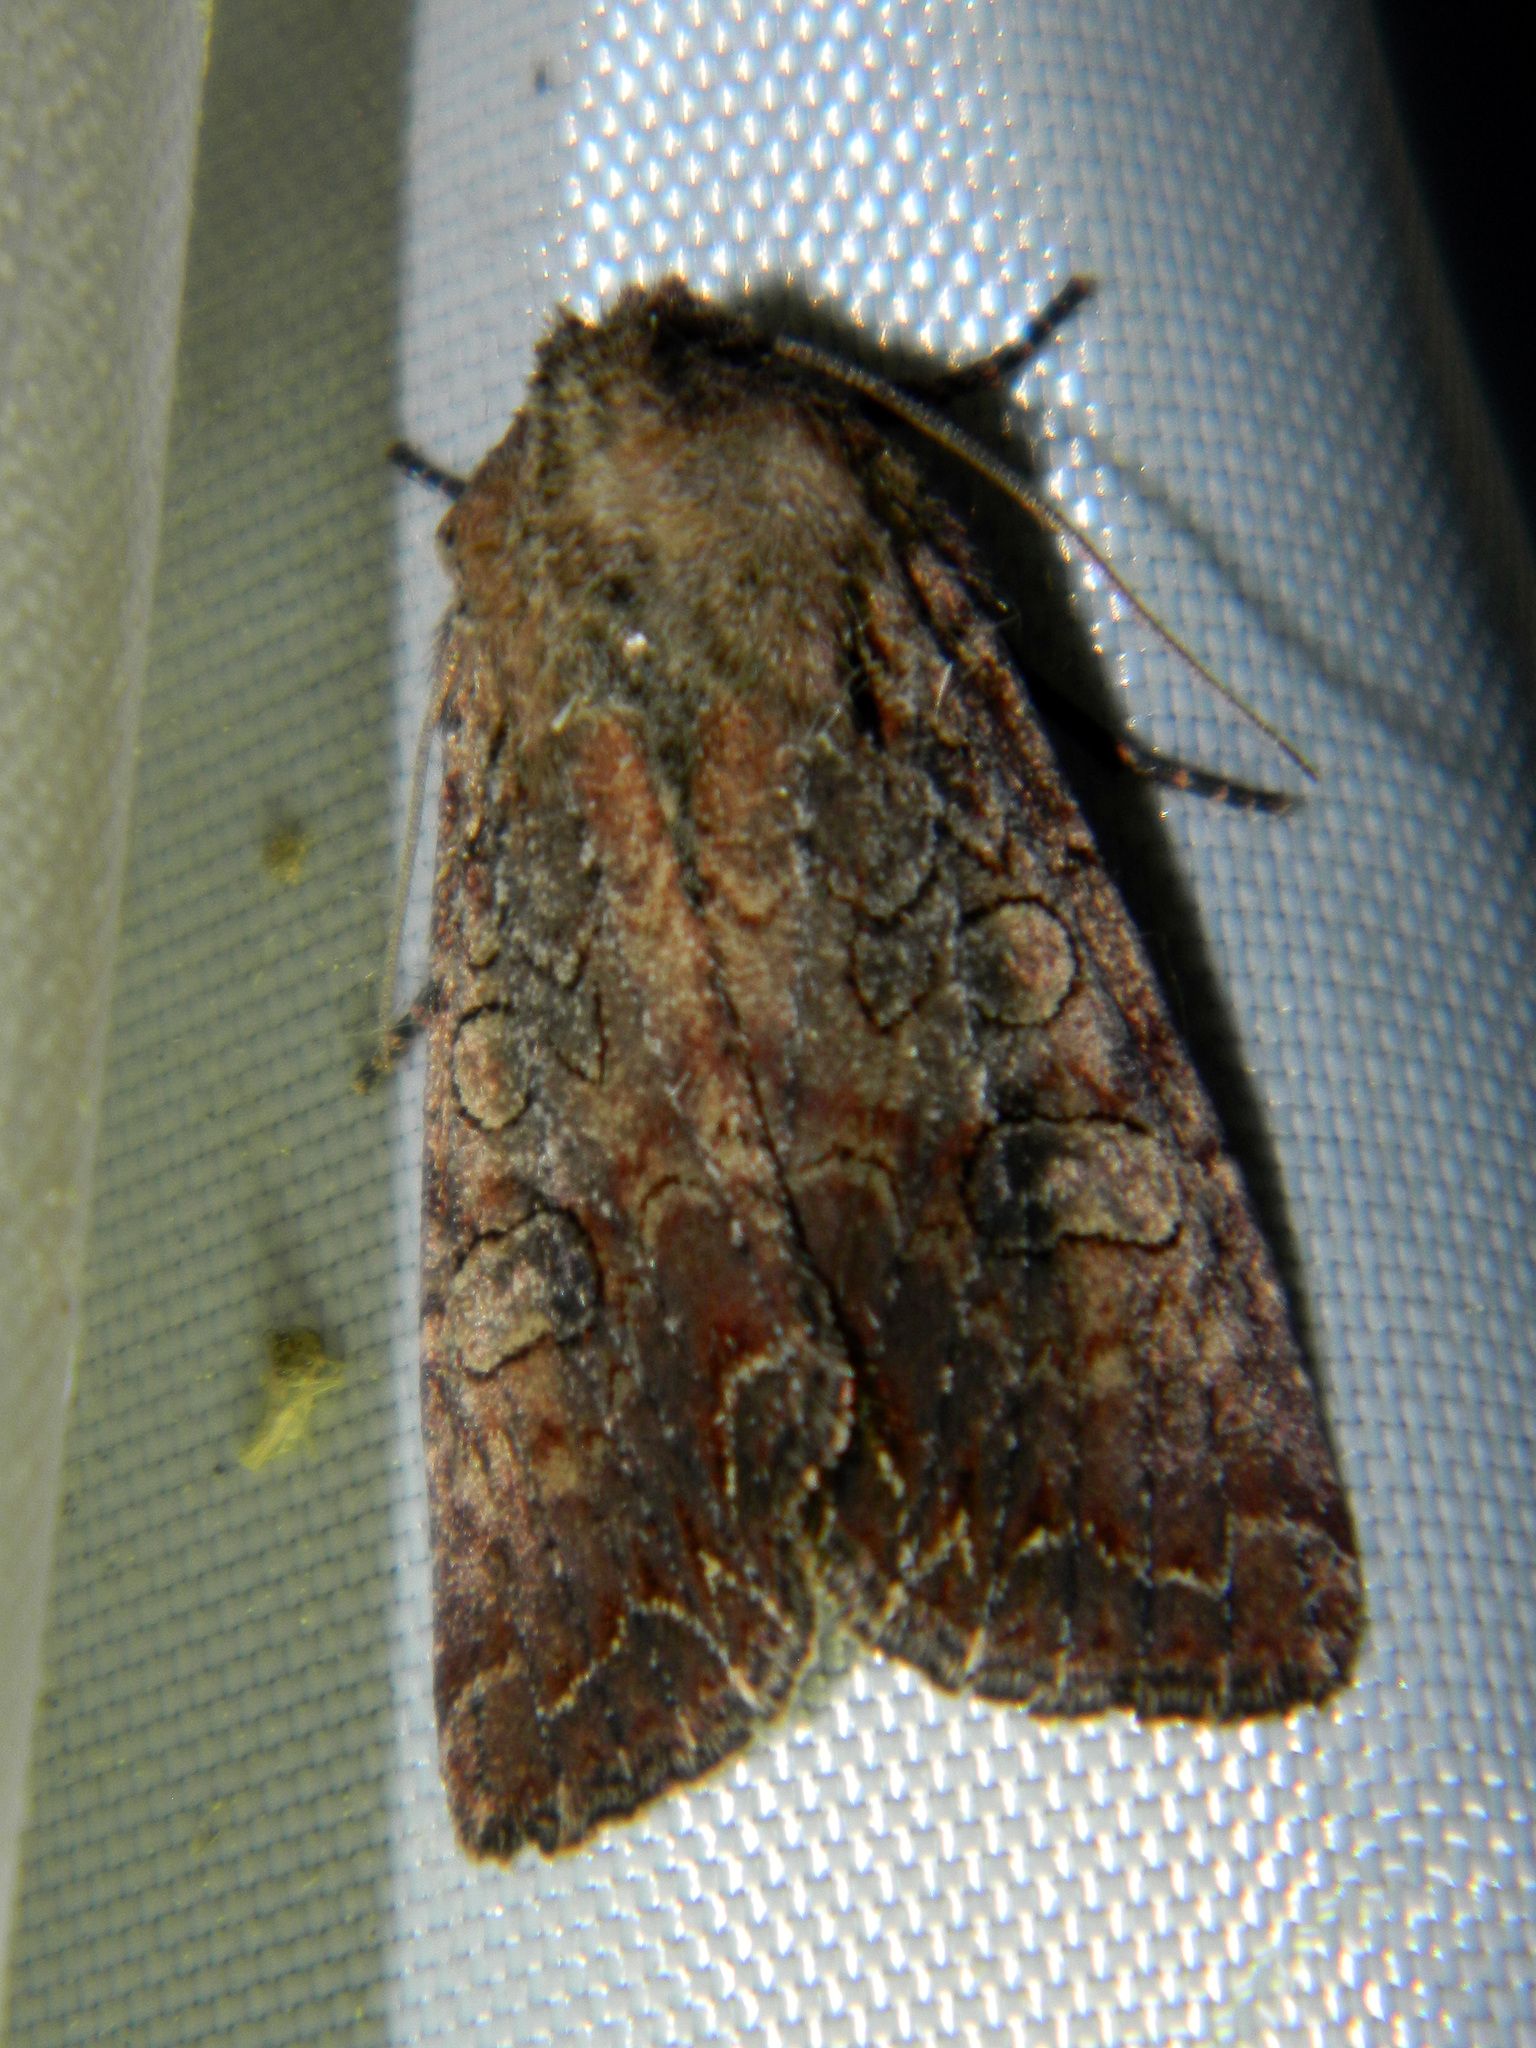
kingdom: Animalia
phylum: Arthropoda
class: Insecta
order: Lepidoptera
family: Noctuidae
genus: Lacanobia
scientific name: Lacanobia radix
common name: Garden arches moth
